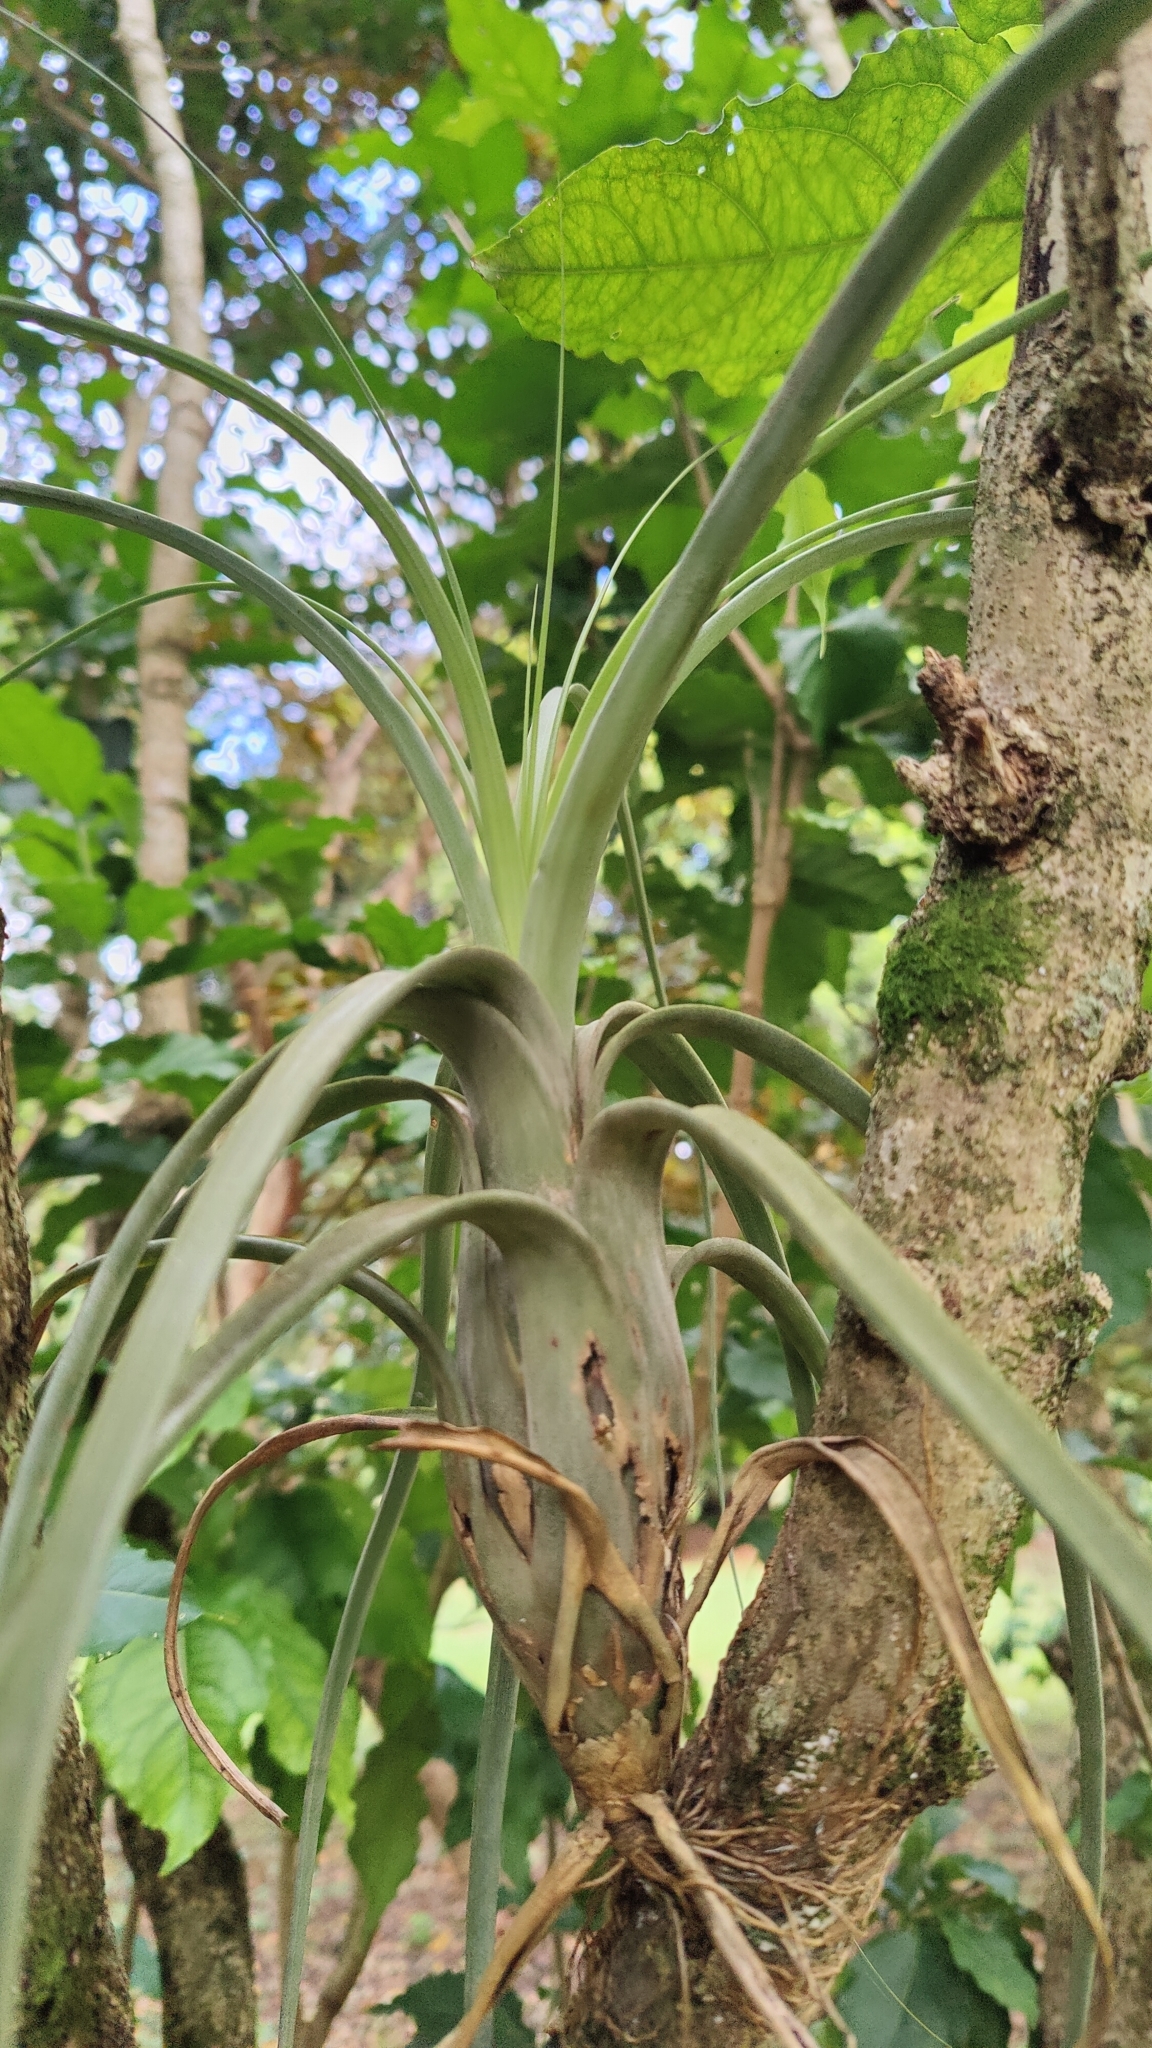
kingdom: Plantae
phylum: Tracheophyta
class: Liliopsida
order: Poales
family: Bromeliaceae
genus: Tillandsia
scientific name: Tillandsia balbisiana
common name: Northern needleleaf
